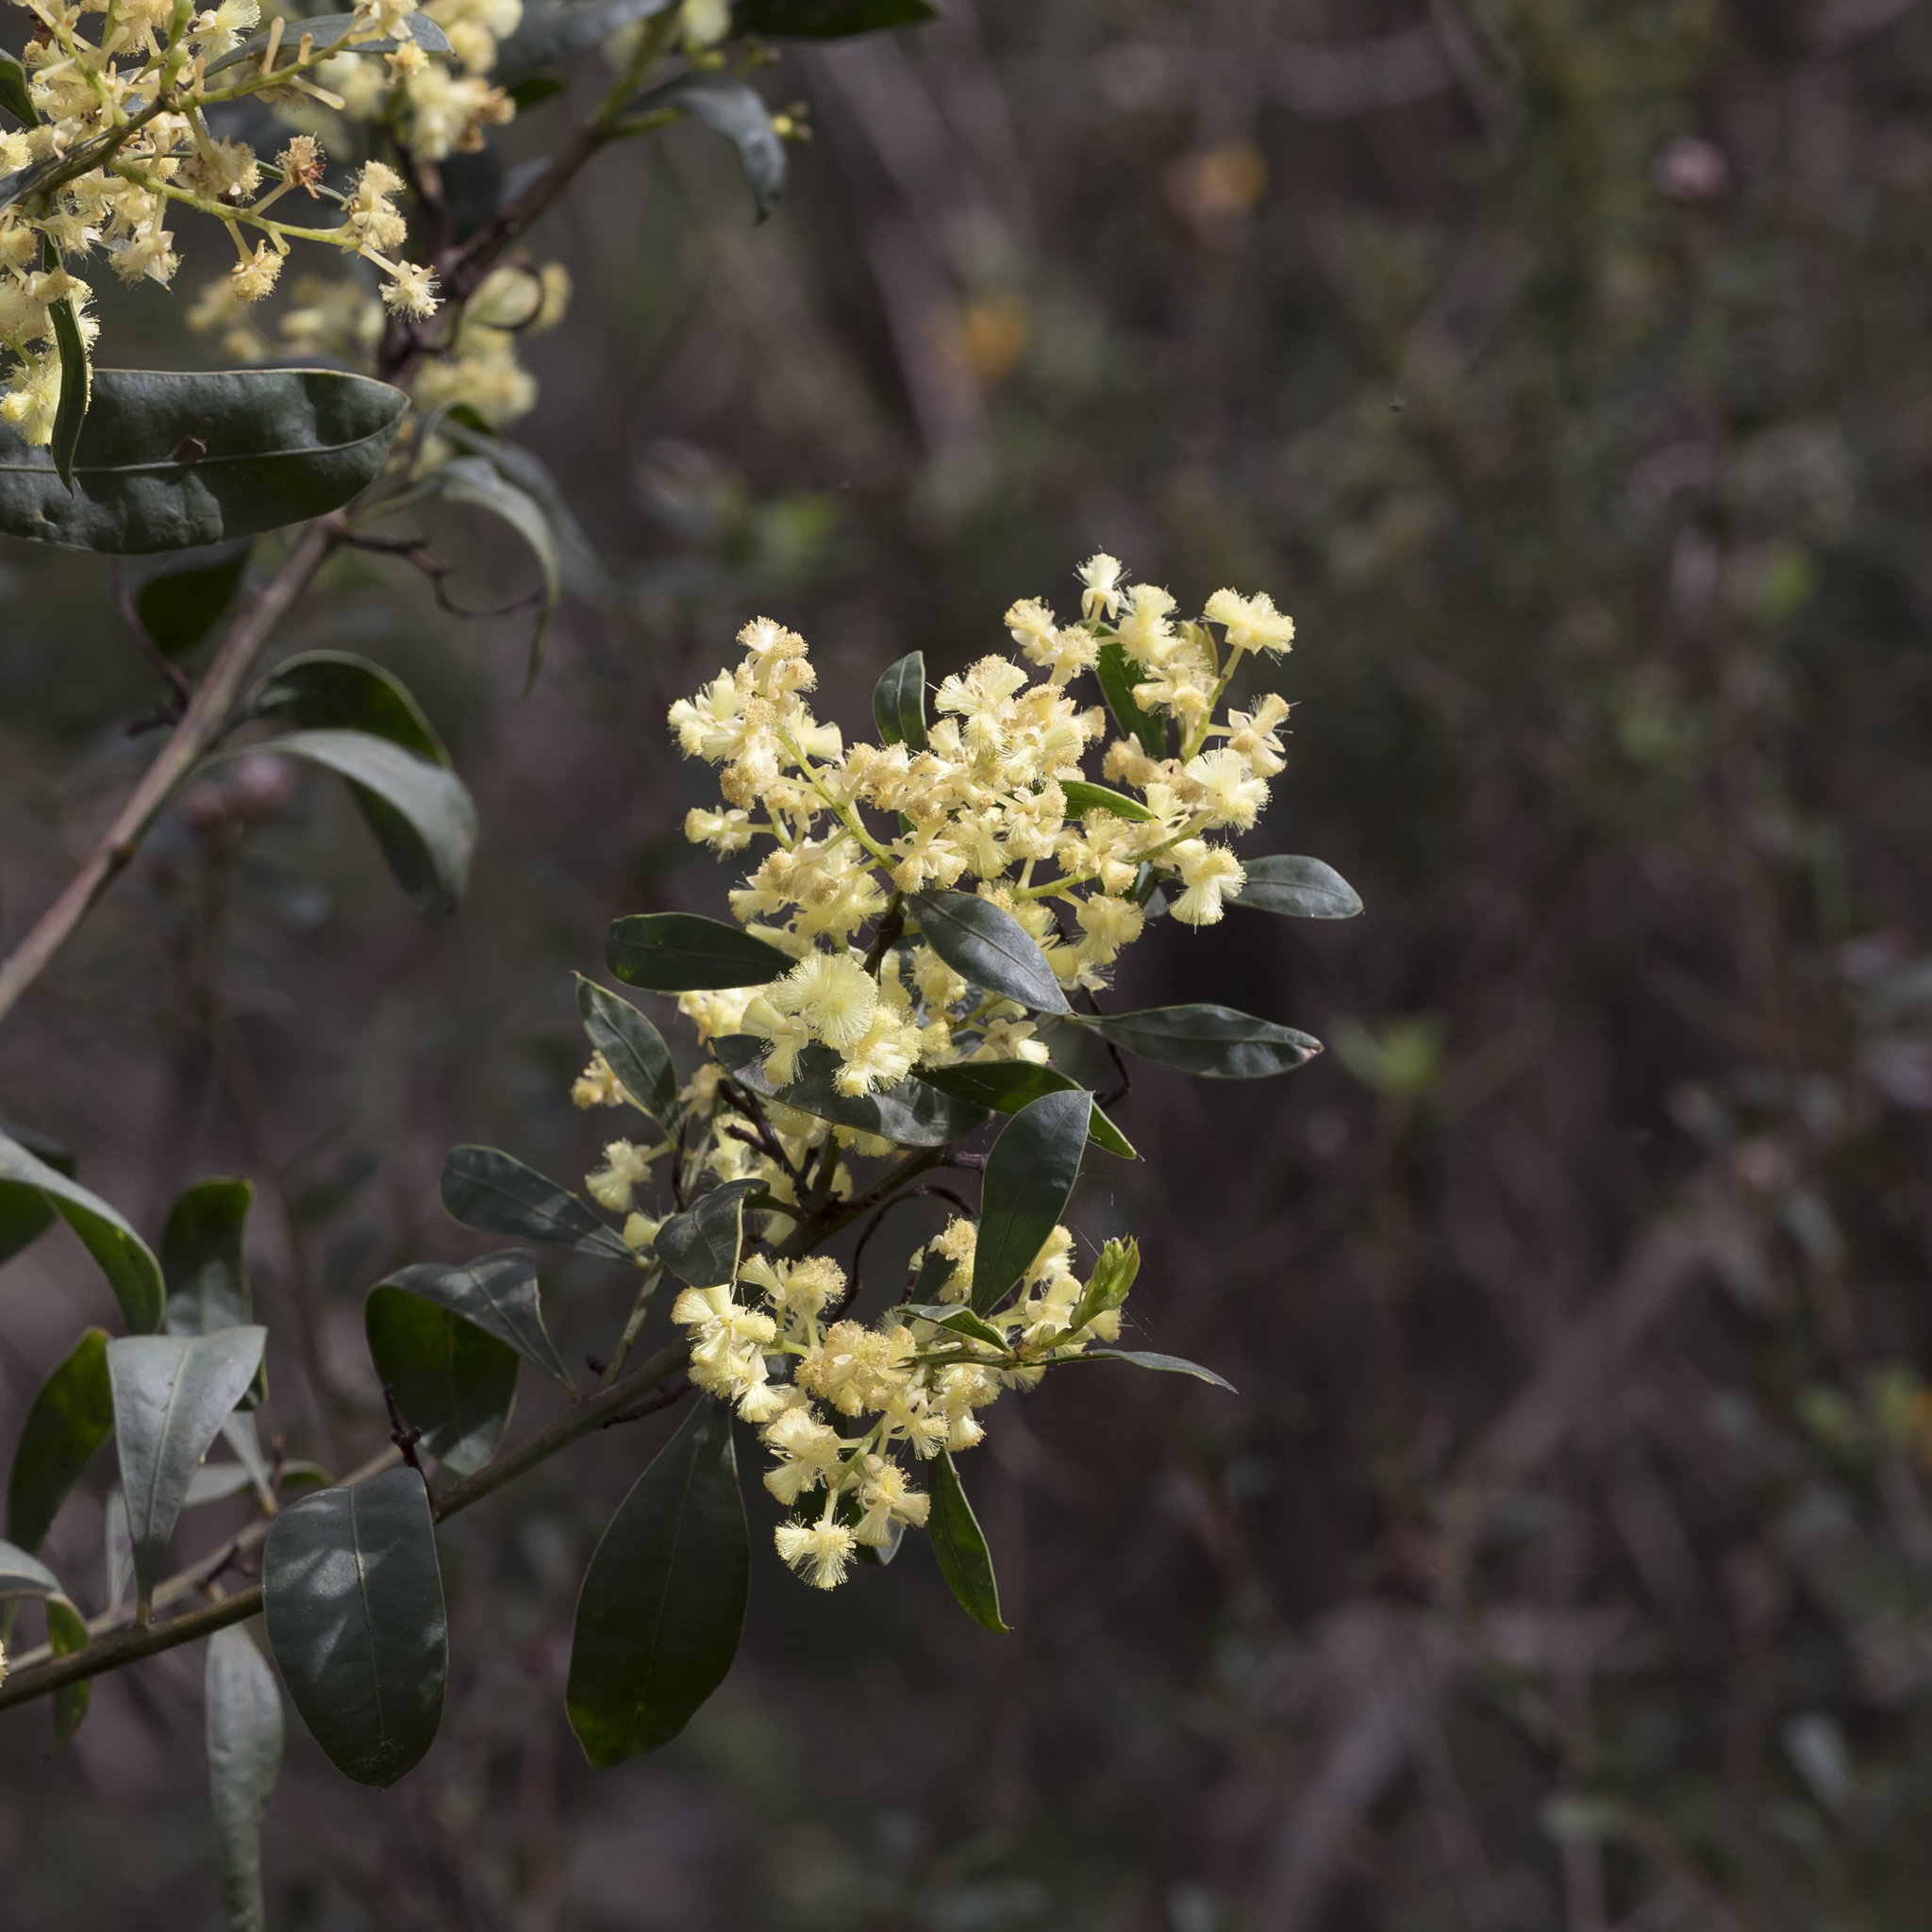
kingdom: Plantae
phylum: Tracheophyta
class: Magnoliopsida
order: Fabales
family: Fabaceae
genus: Acacia
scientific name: Acacia myrtifolia
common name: Myrtle wattle
